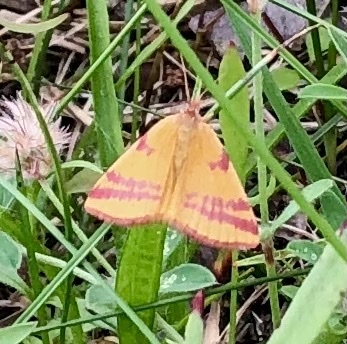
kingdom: Animalia
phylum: Arthropoda
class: Insecta
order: Lepidoptera
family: Geometridae
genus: Lythria
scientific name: Lythria cruentaria
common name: Purple-barred yellow
